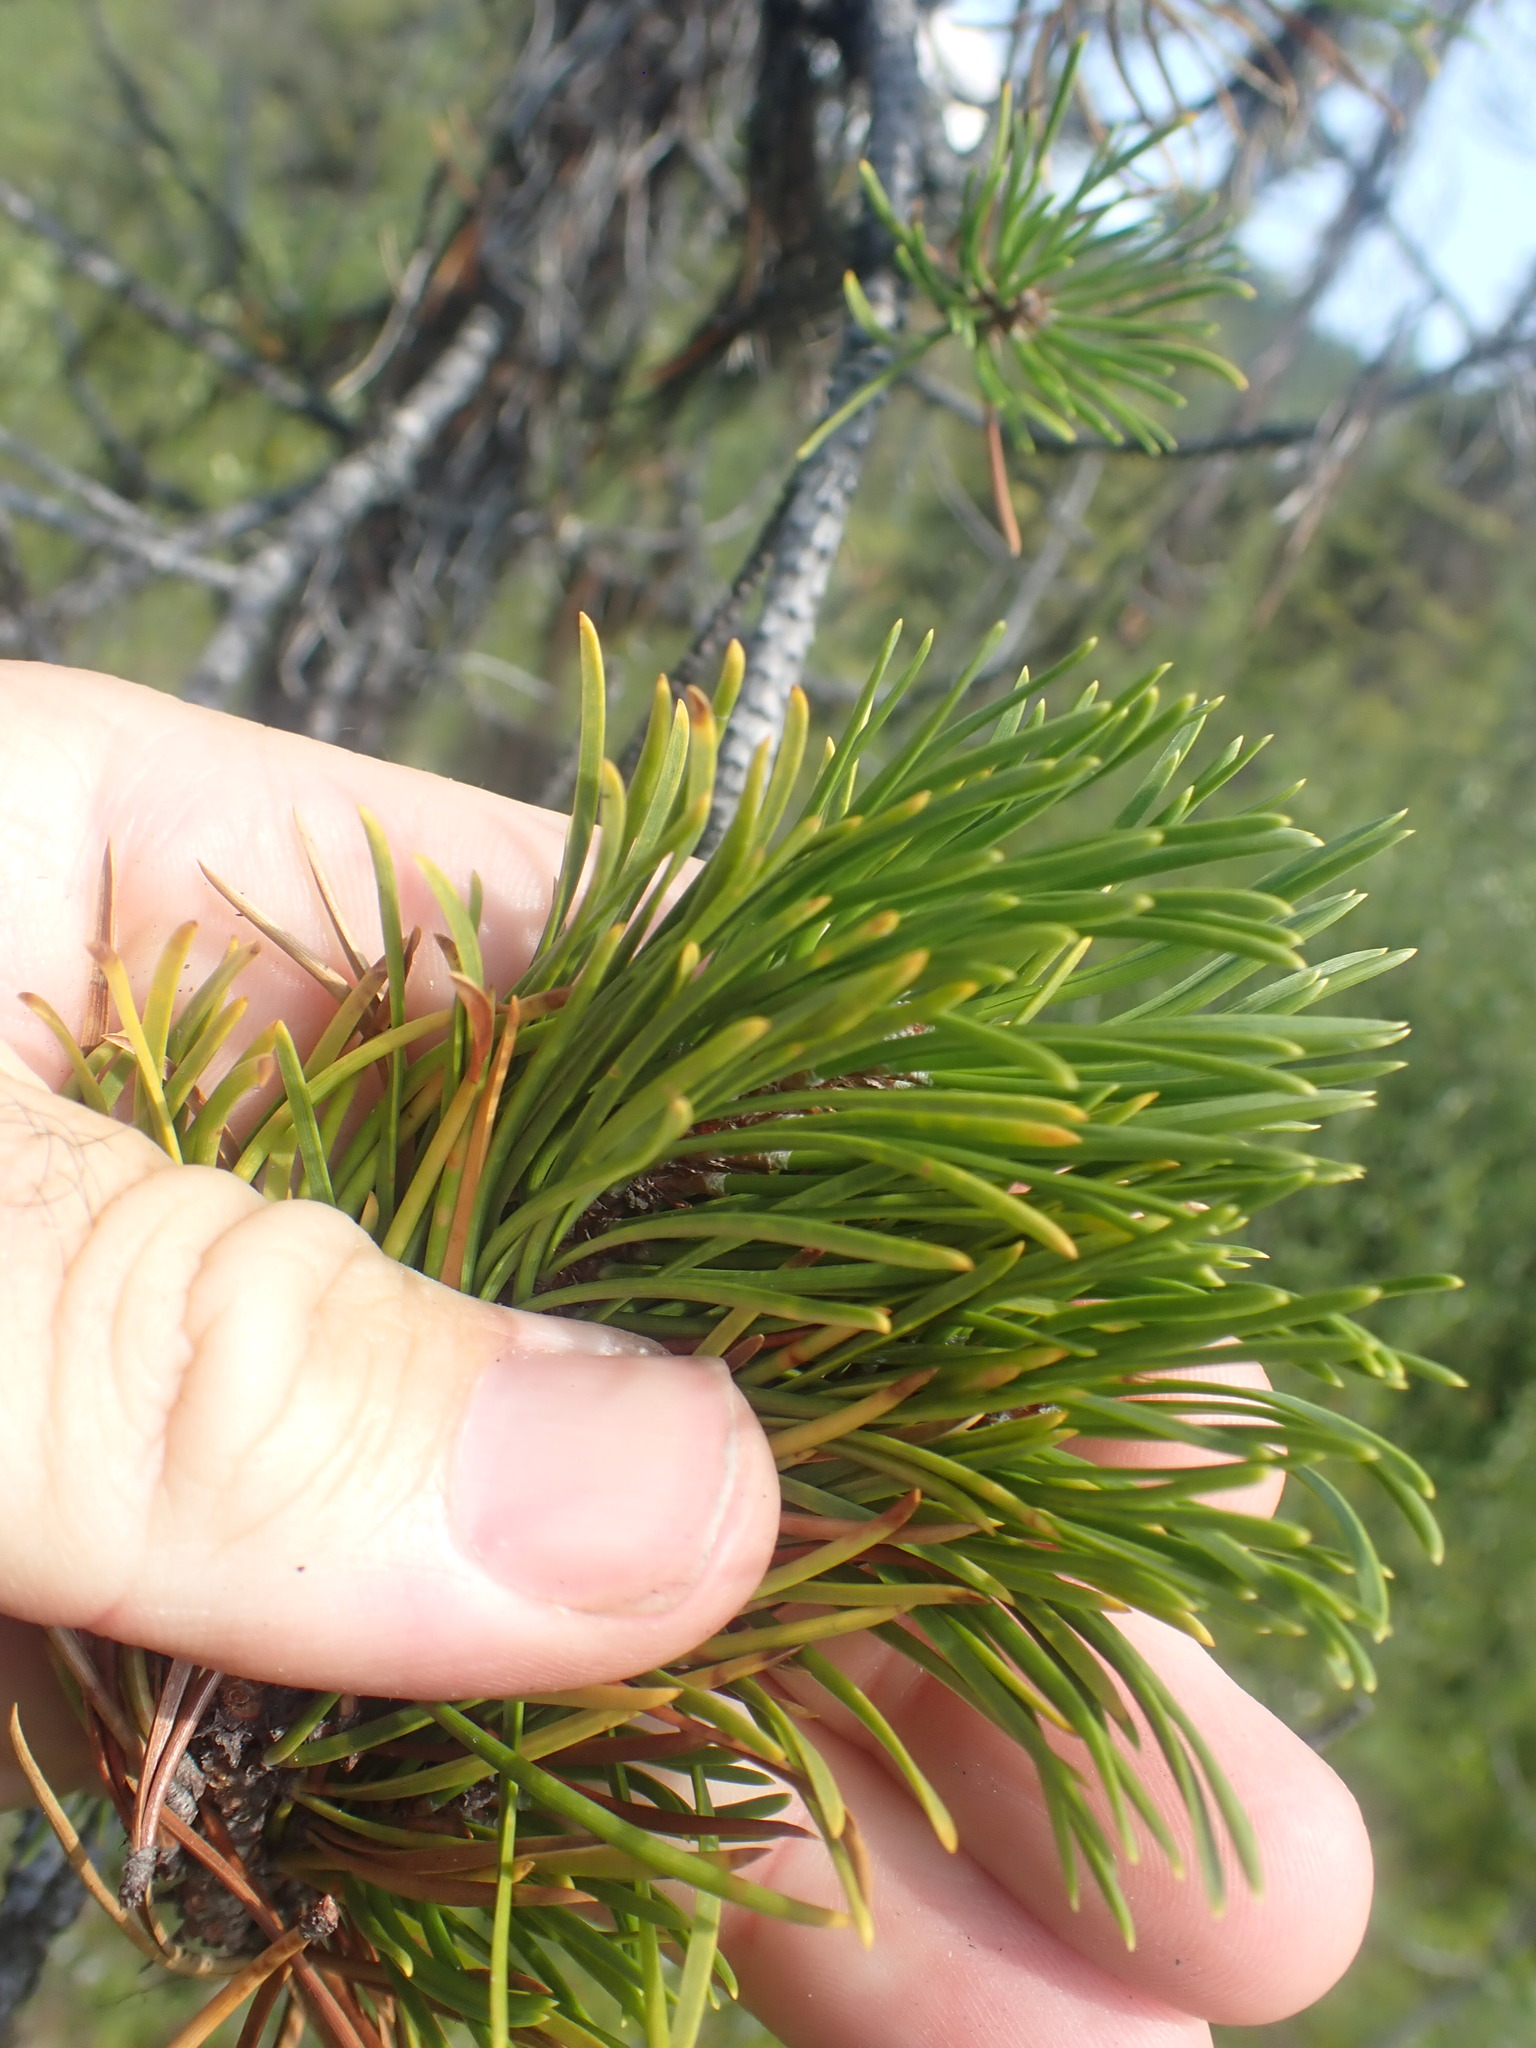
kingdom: Plantae
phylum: Tracheophyta
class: Pinopsida
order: Pinales
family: Pinaceae
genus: Pinus
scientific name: Pinus contorta
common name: Lodgepole pine
